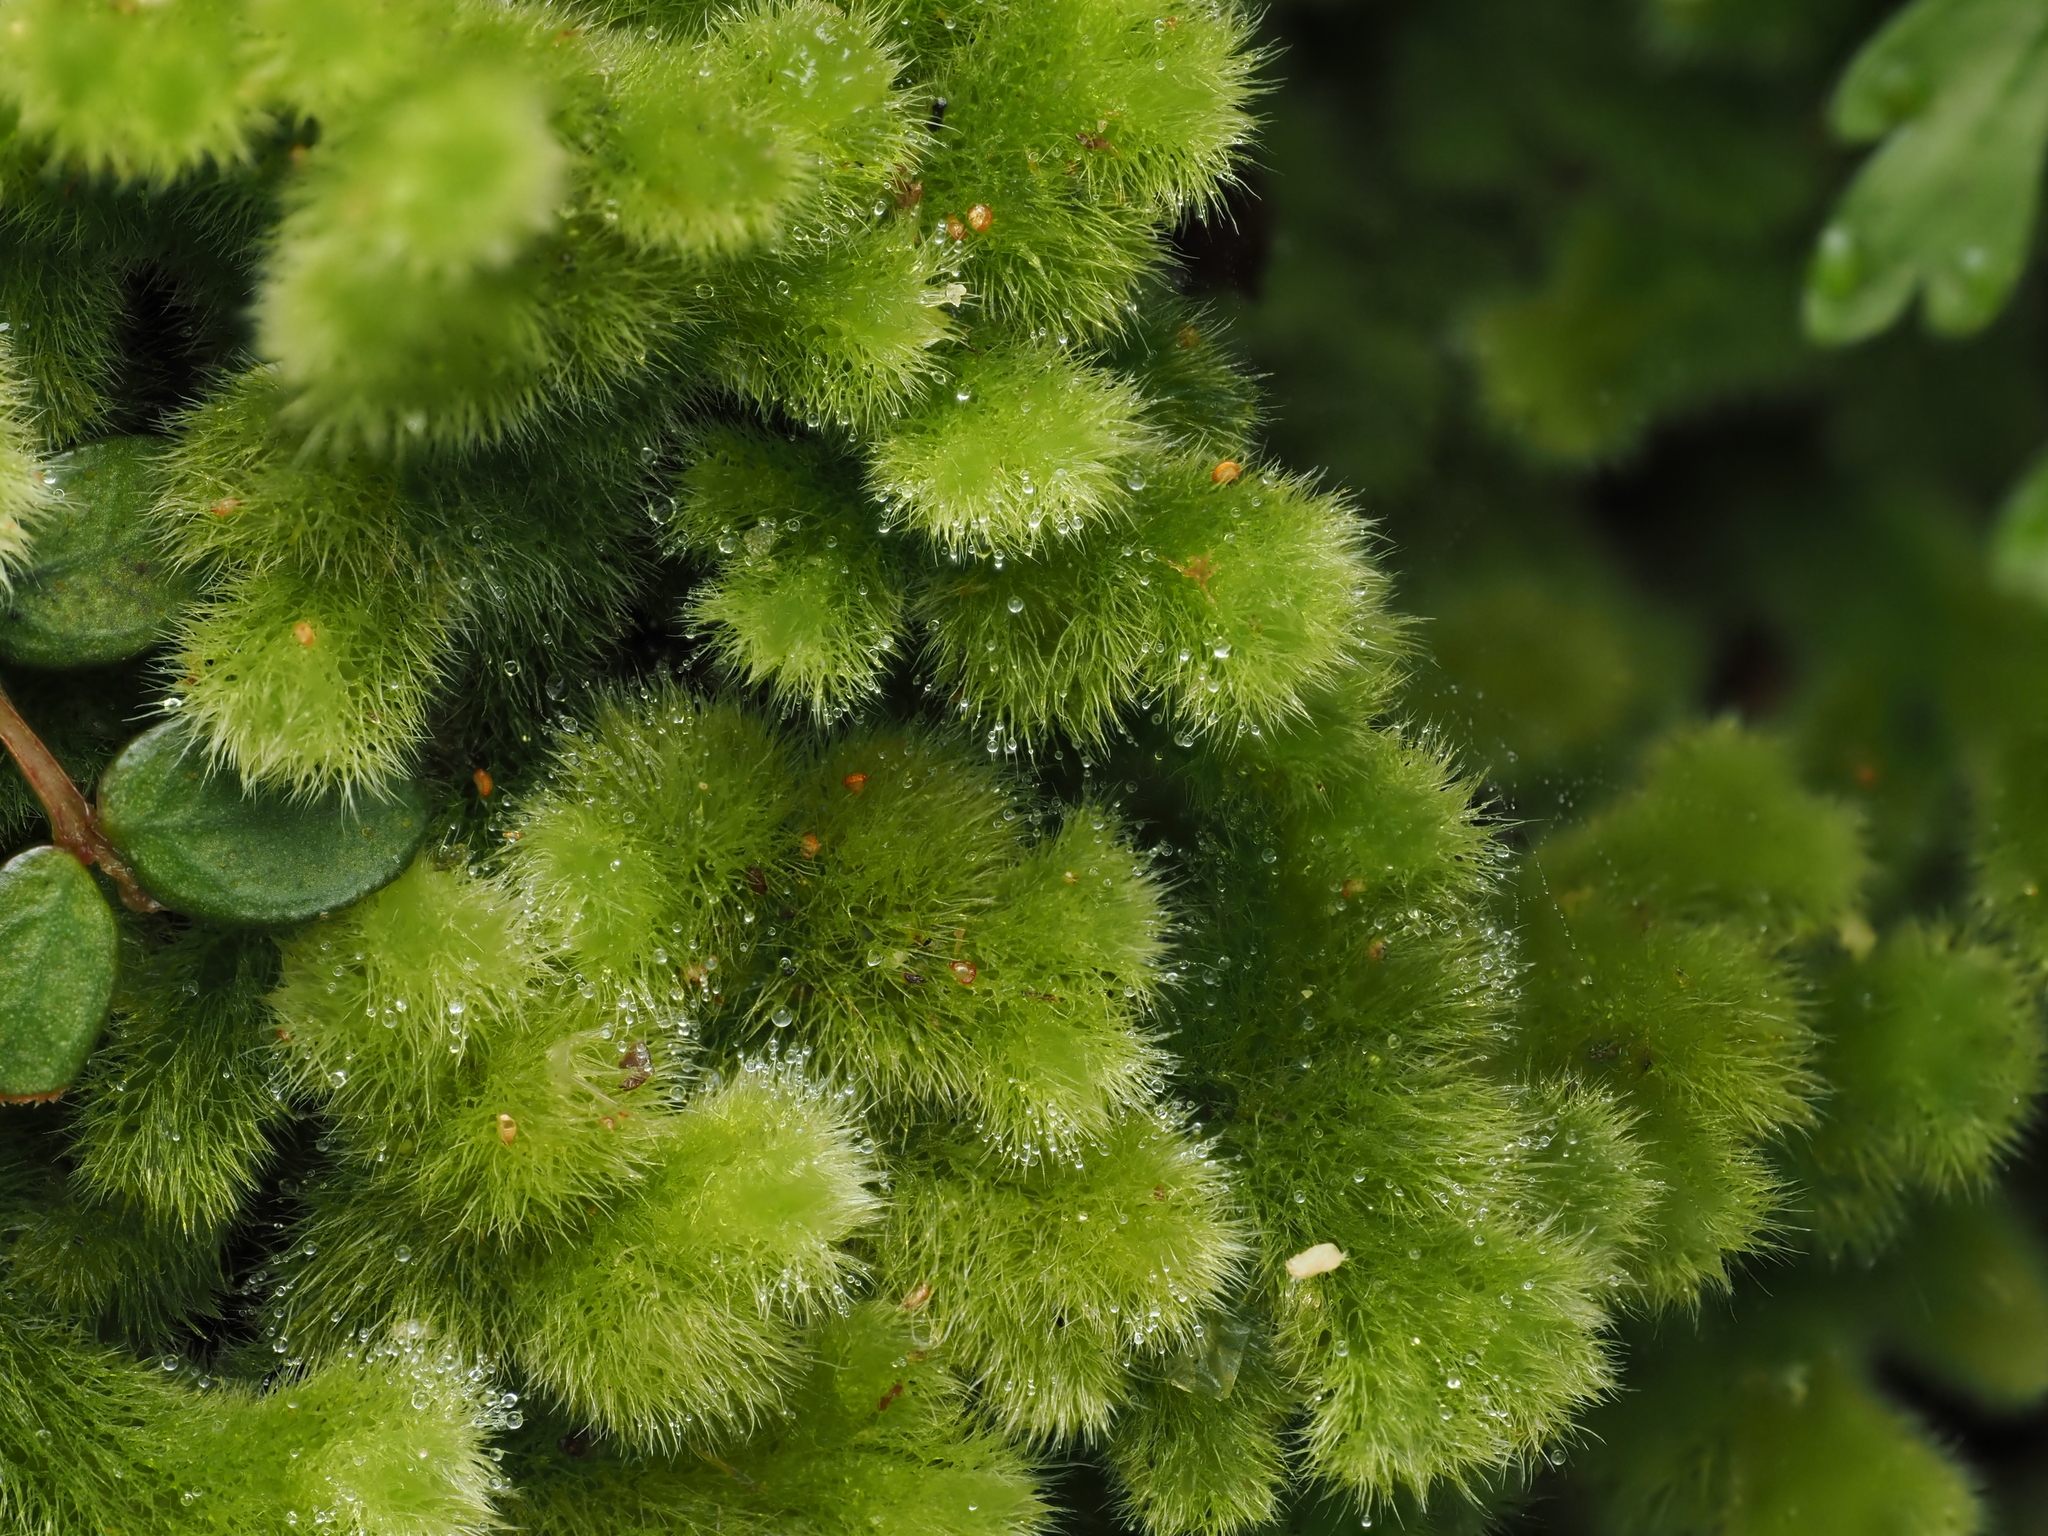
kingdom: Plantae
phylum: Marchantiophyta
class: Jungermanniopsida
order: Jungermanniales
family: Trichocoleaceae
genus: Leiomitra
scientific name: Leiomitra lanata
